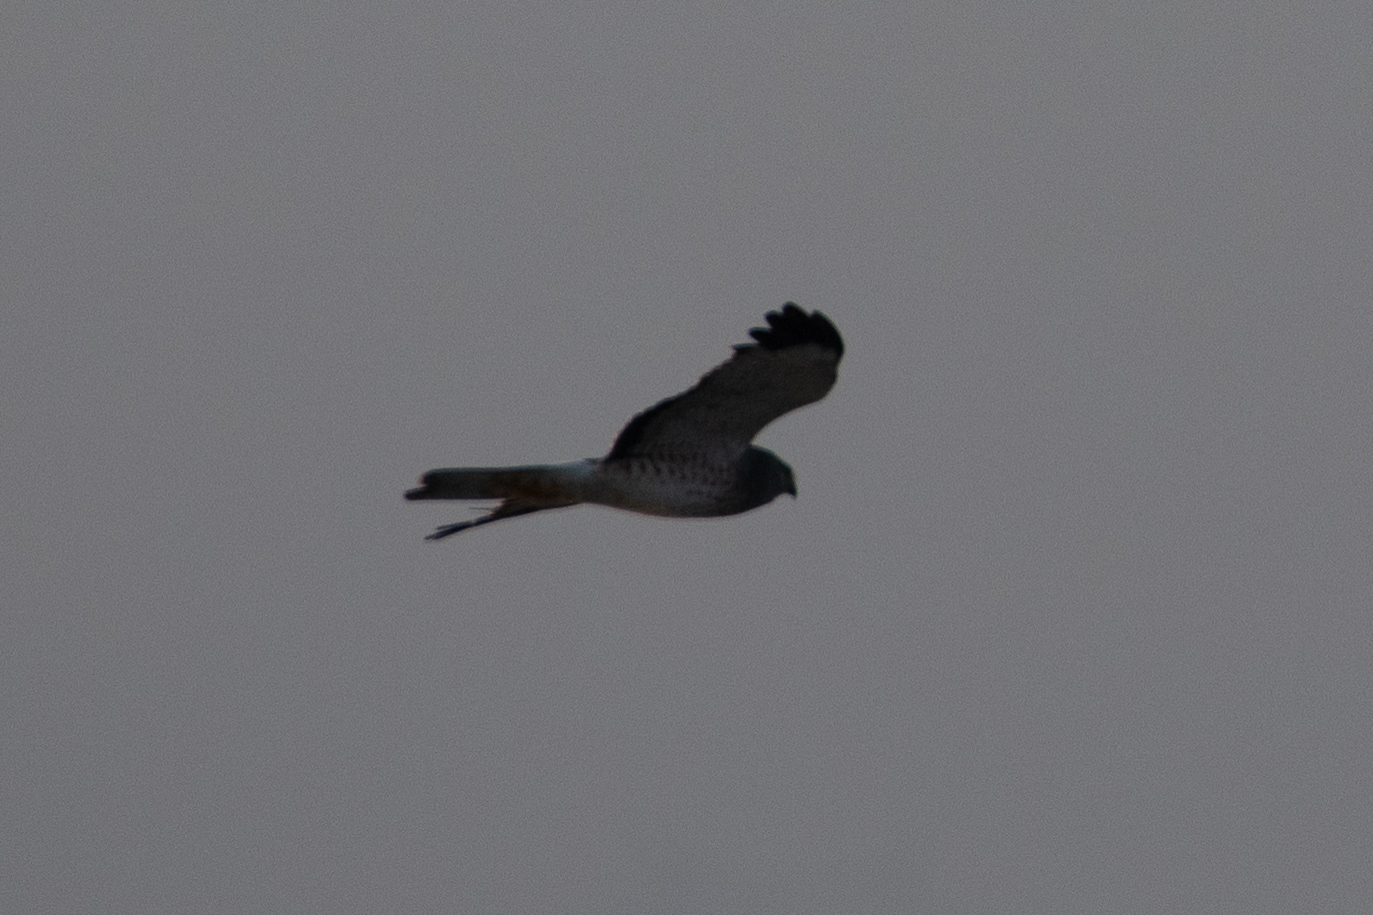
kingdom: Animalia
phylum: Chordata
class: Aves
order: Accipitriformes
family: Accipitridae
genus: Circus
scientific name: Circus cyaneus
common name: Hen harrier
